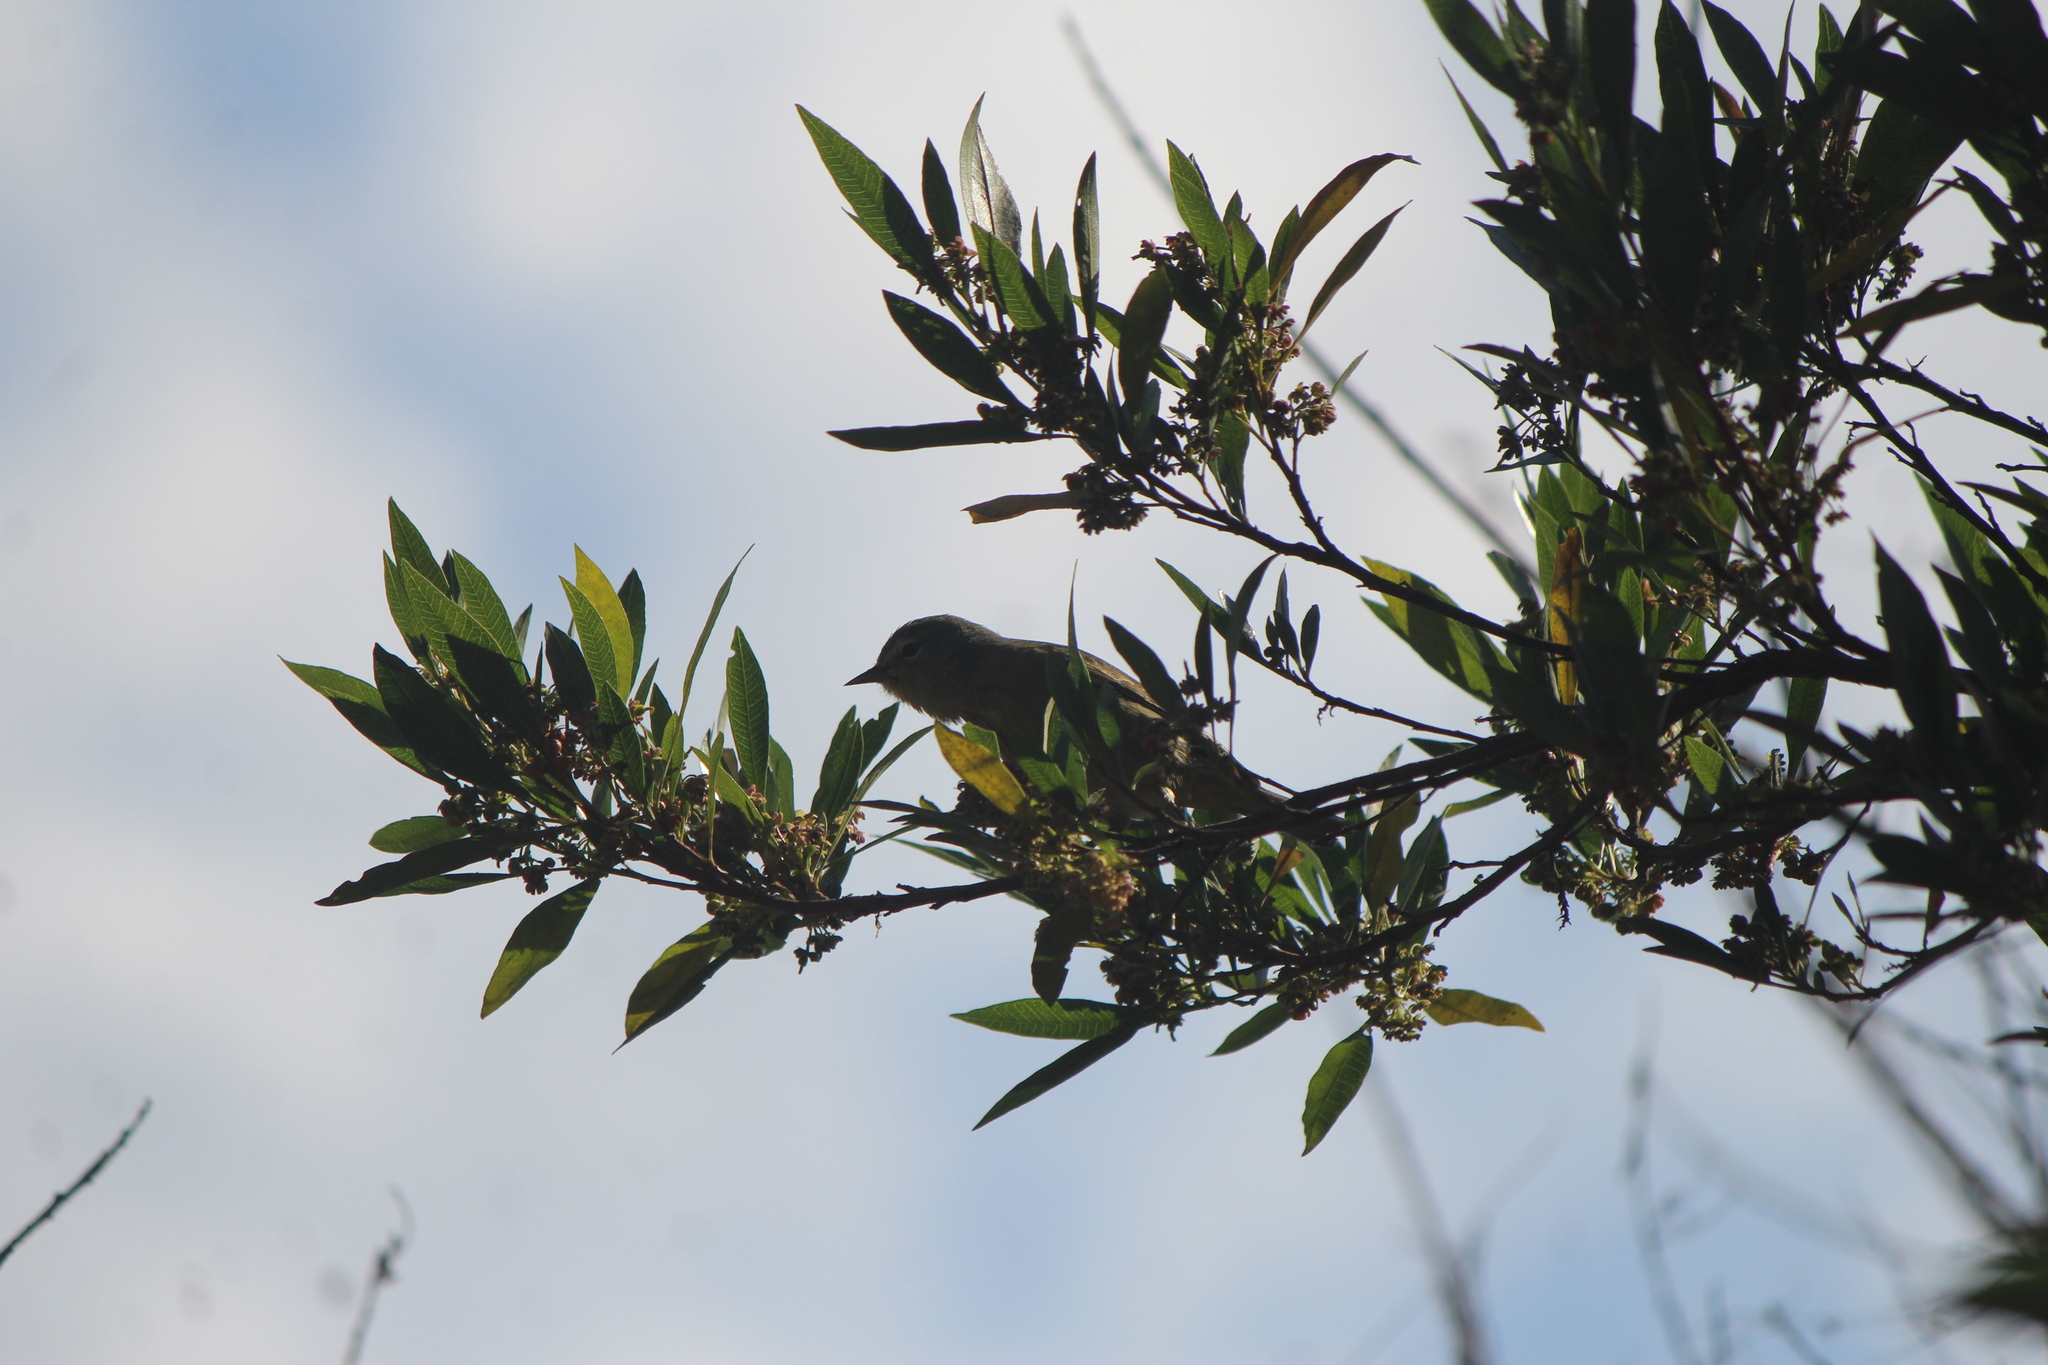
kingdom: Animalia
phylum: Chordata
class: Aves
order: Passeriformes
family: Parulidae
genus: Leiothlypis
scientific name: Leiothlypis celata
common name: Orange-crowned warbler
